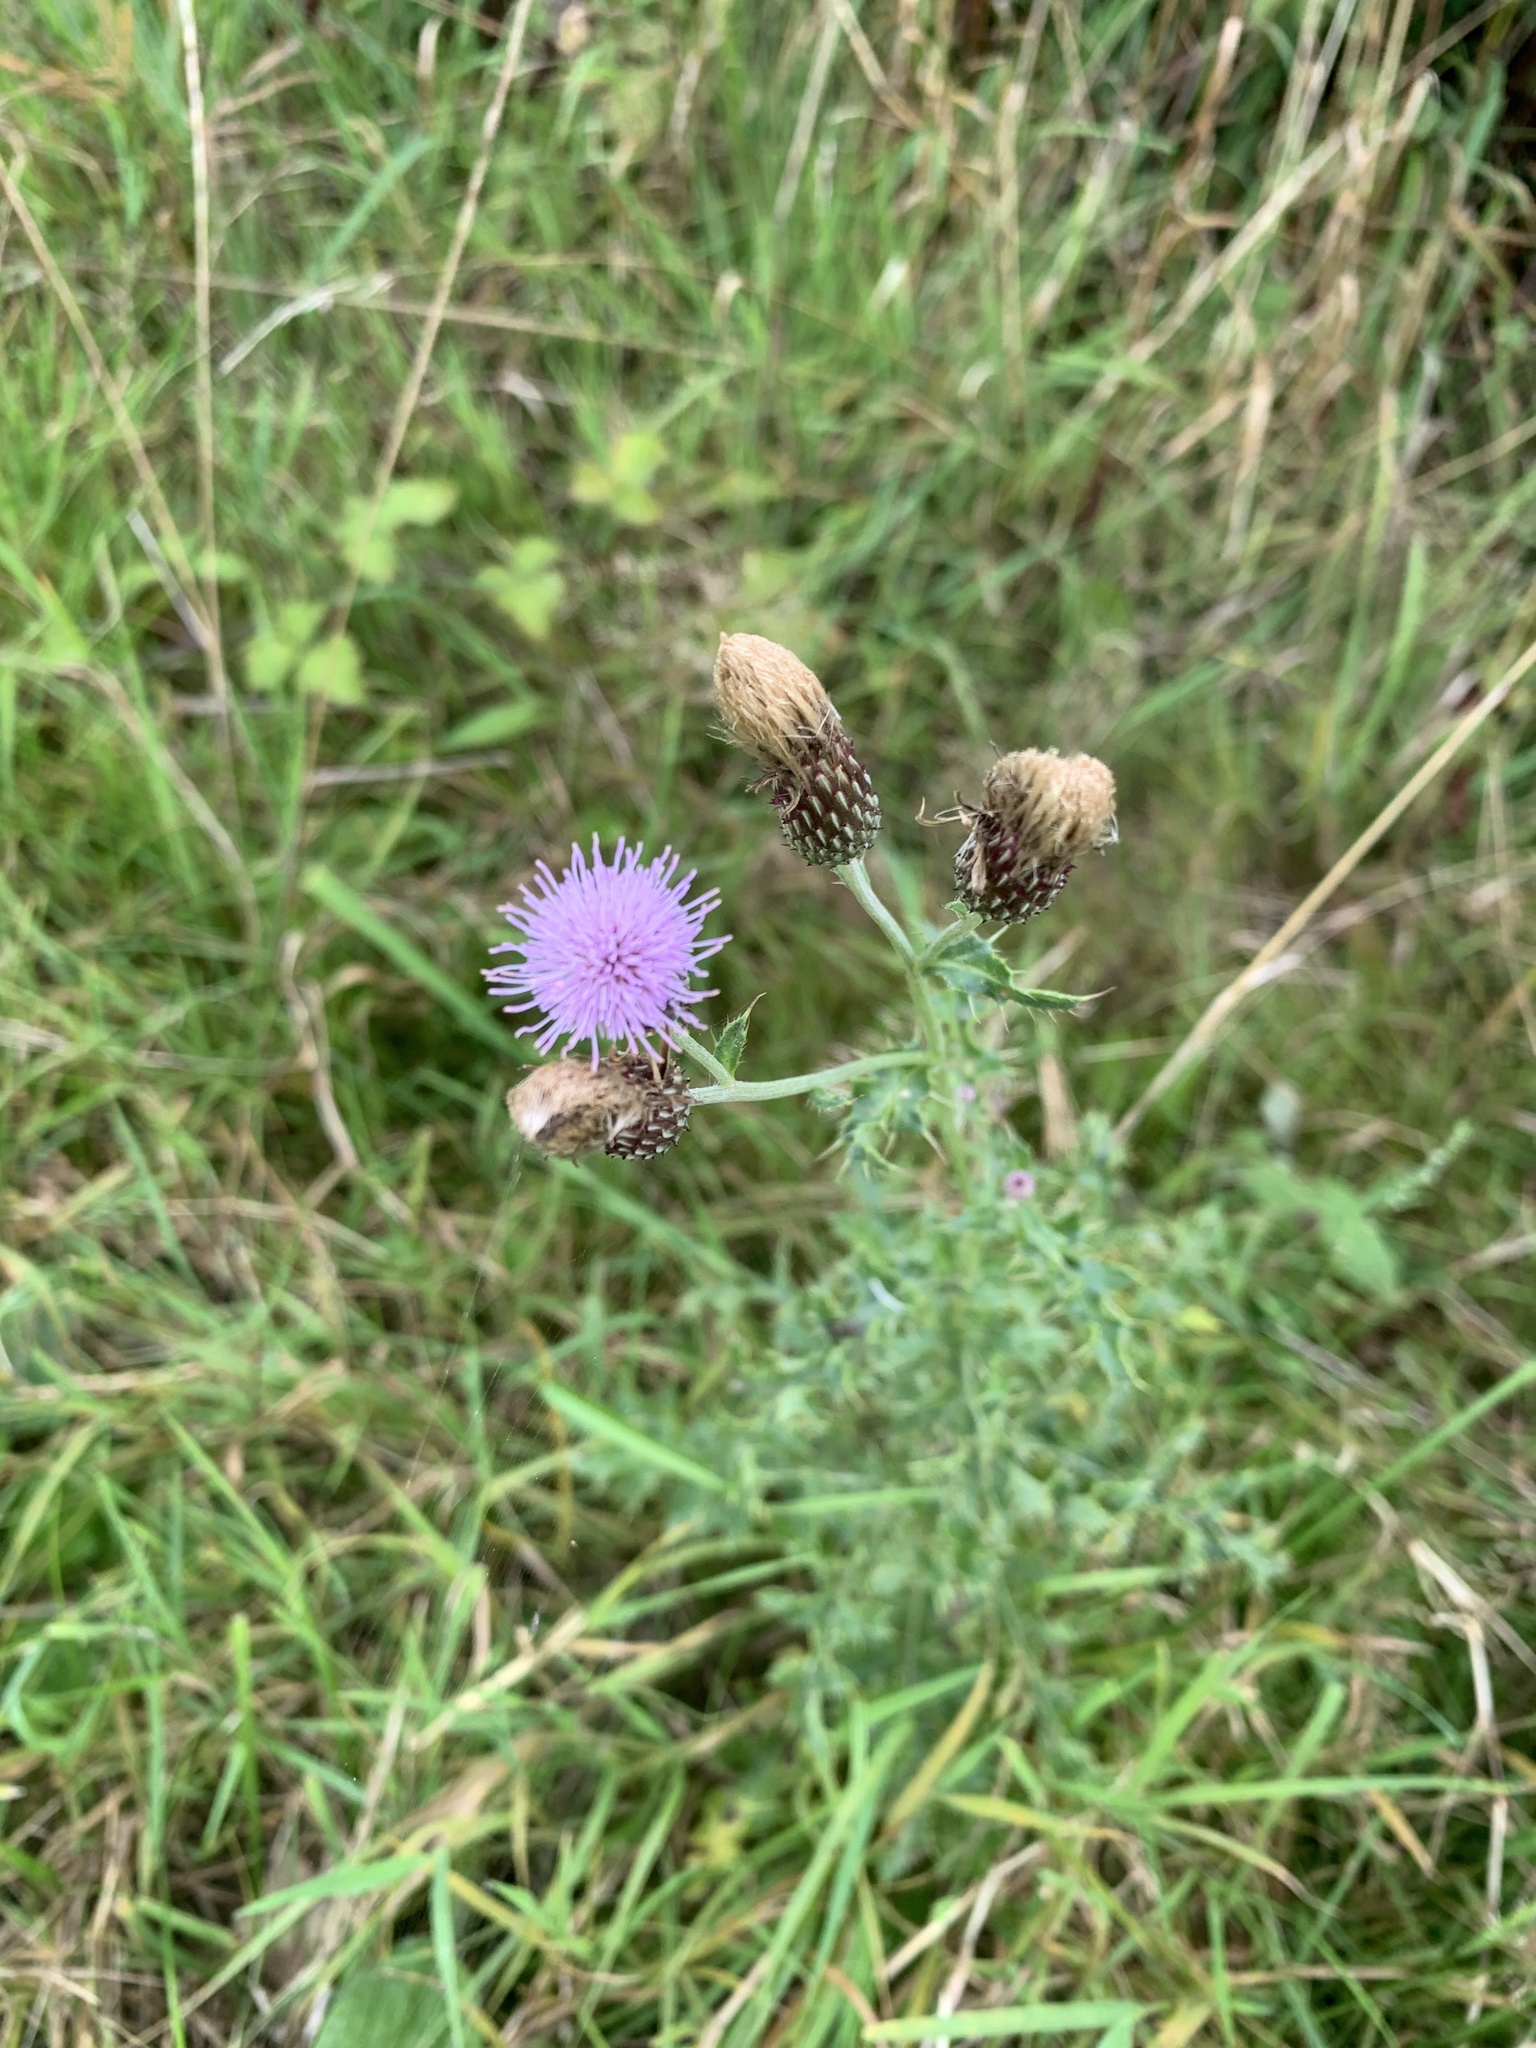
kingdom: Plantae
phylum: Tracheophyta
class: Magnoliopsida
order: Asterales
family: Asteraceae
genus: Cirsium
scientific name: Cirsium arvense
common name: Creeping thistle
